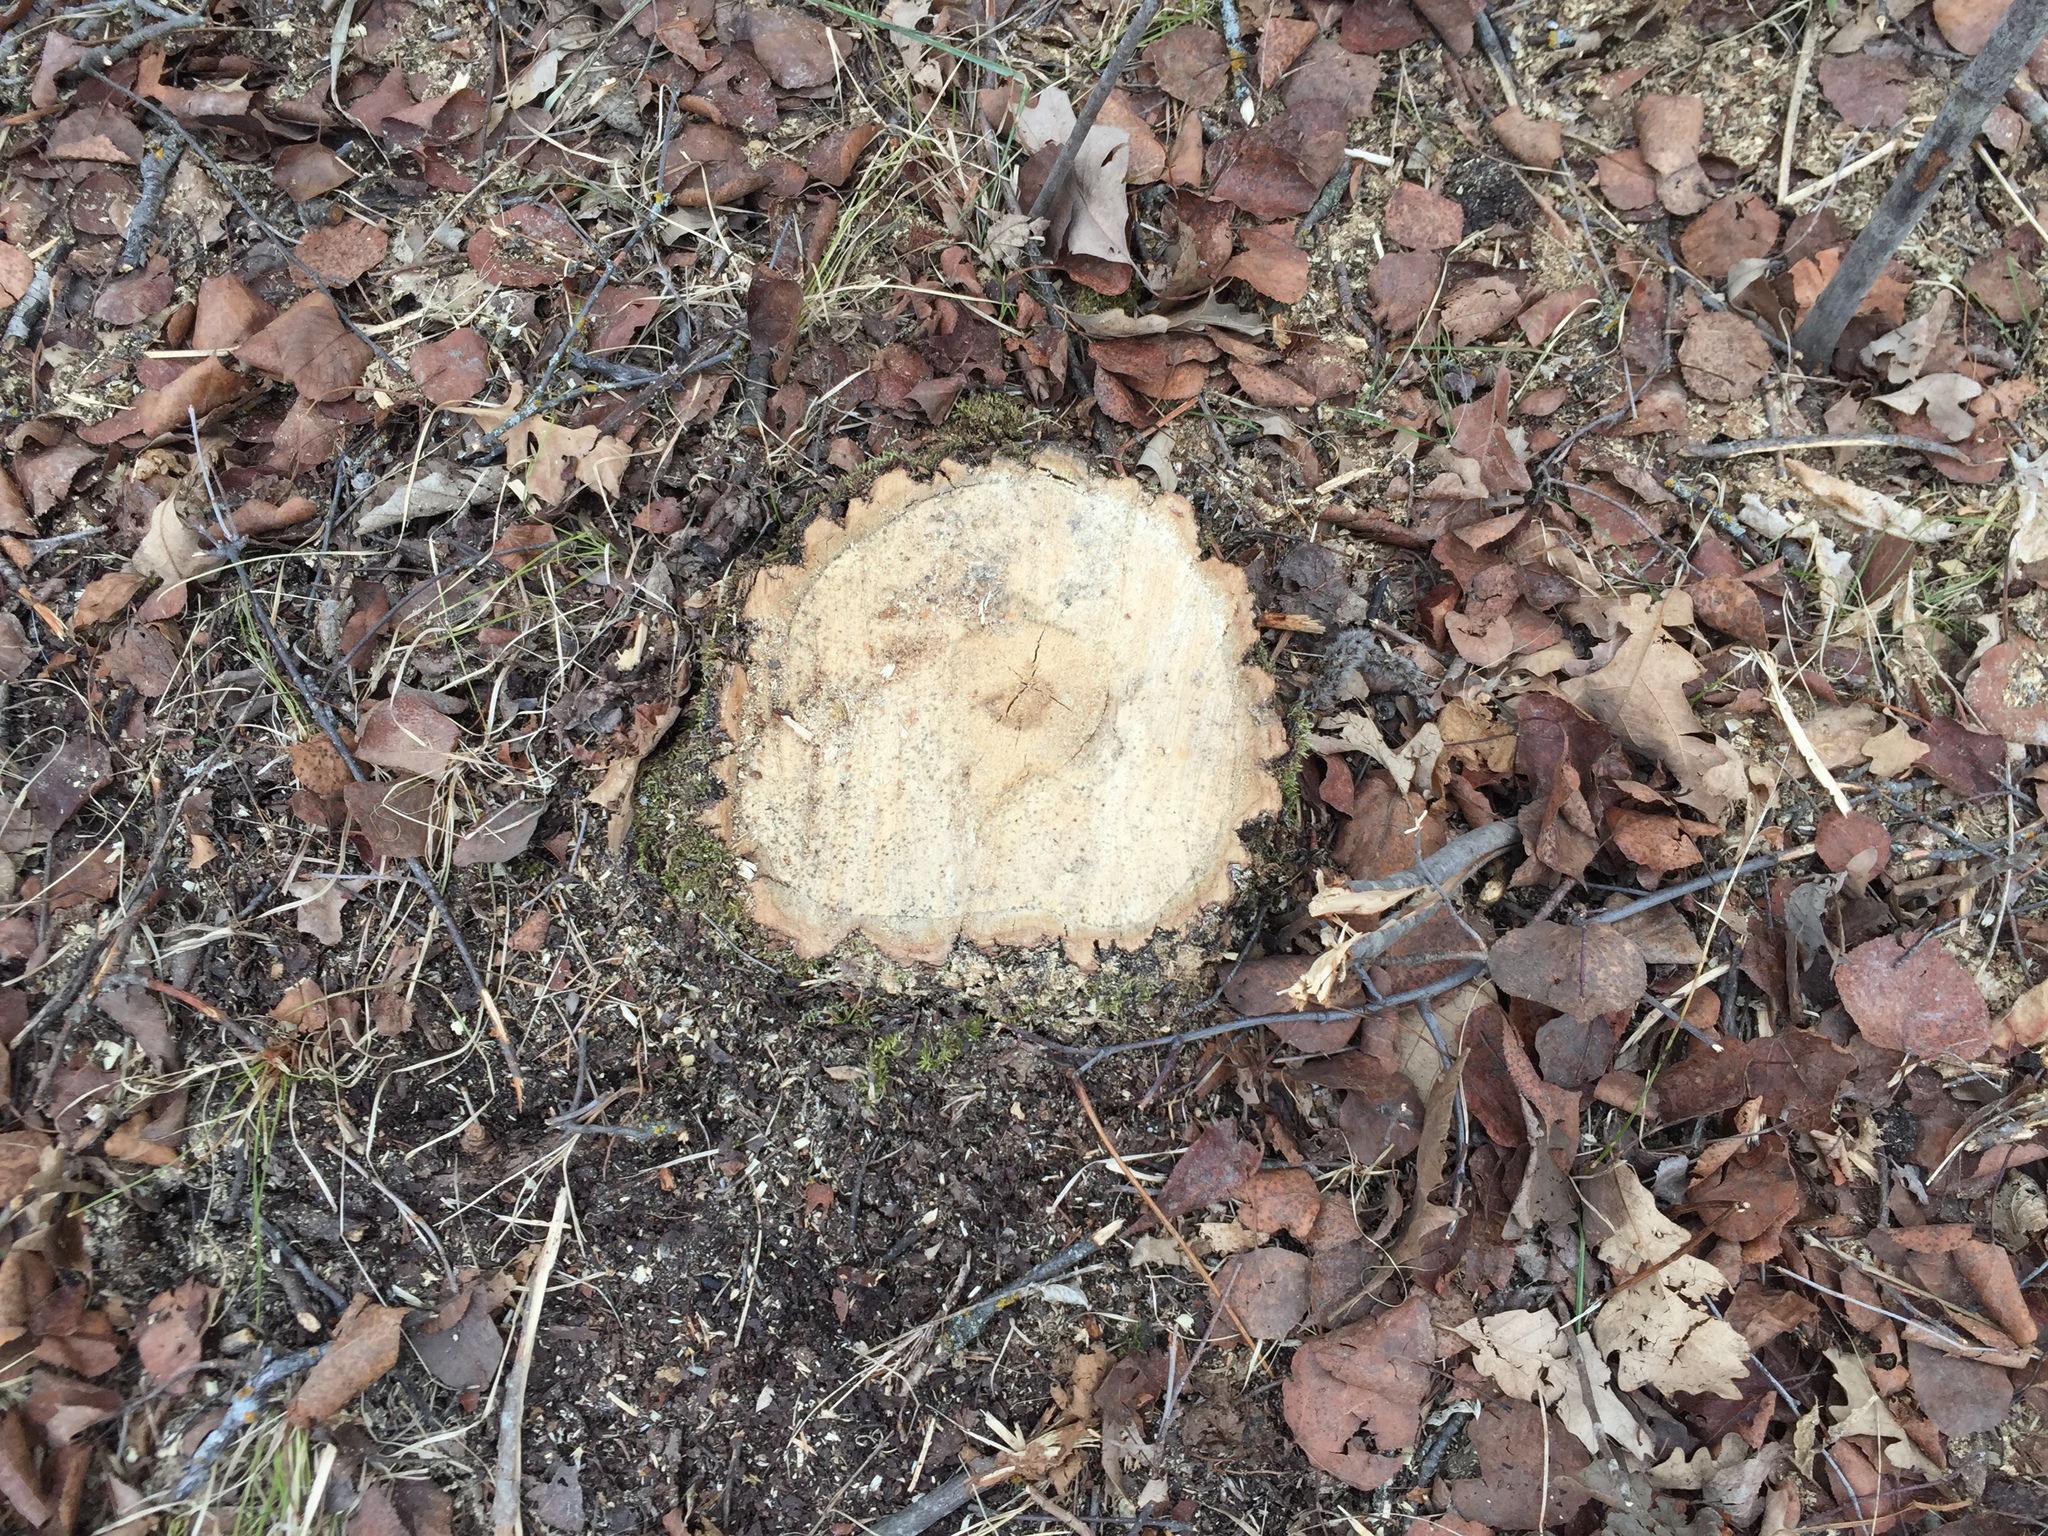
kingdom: Plantae
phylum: Tracheophyta
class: Magnoliopsida
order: Malpighiales
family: Salicaceae
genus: Populus
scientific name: Populus tremuloides
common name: Quaking aspen
